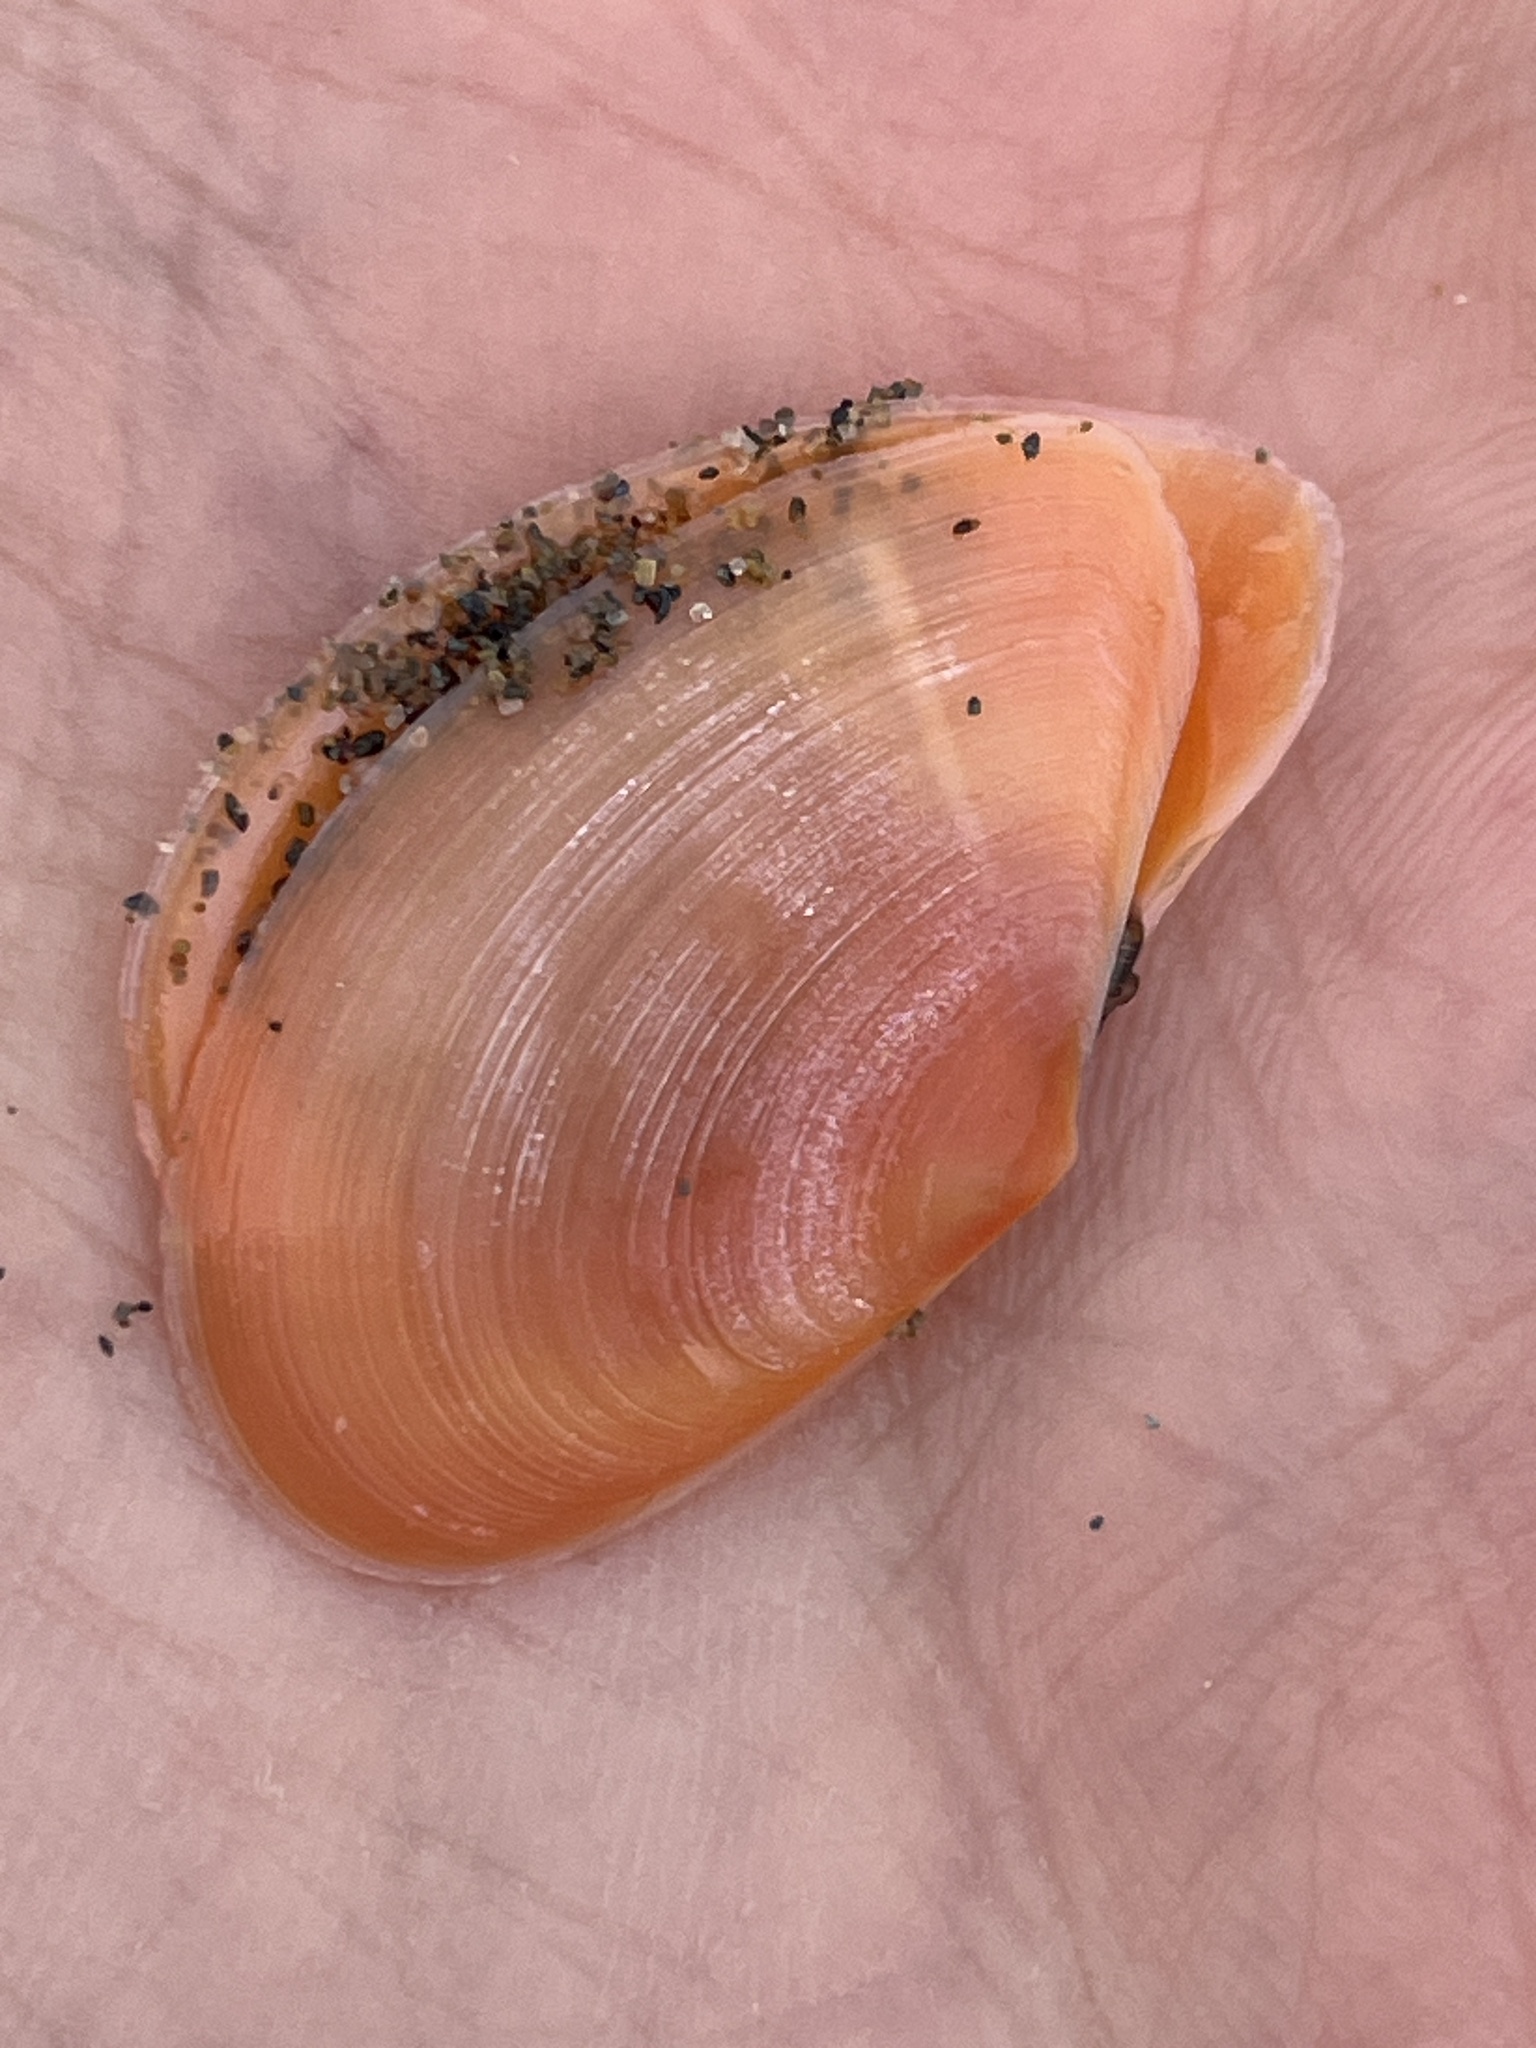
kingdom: Animalia
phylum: Mollusca
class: Bivalvia
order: Cardiida
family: Tellinidae
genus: Bosemprella
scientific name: Bosemprella incarnata
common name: Red tellin
